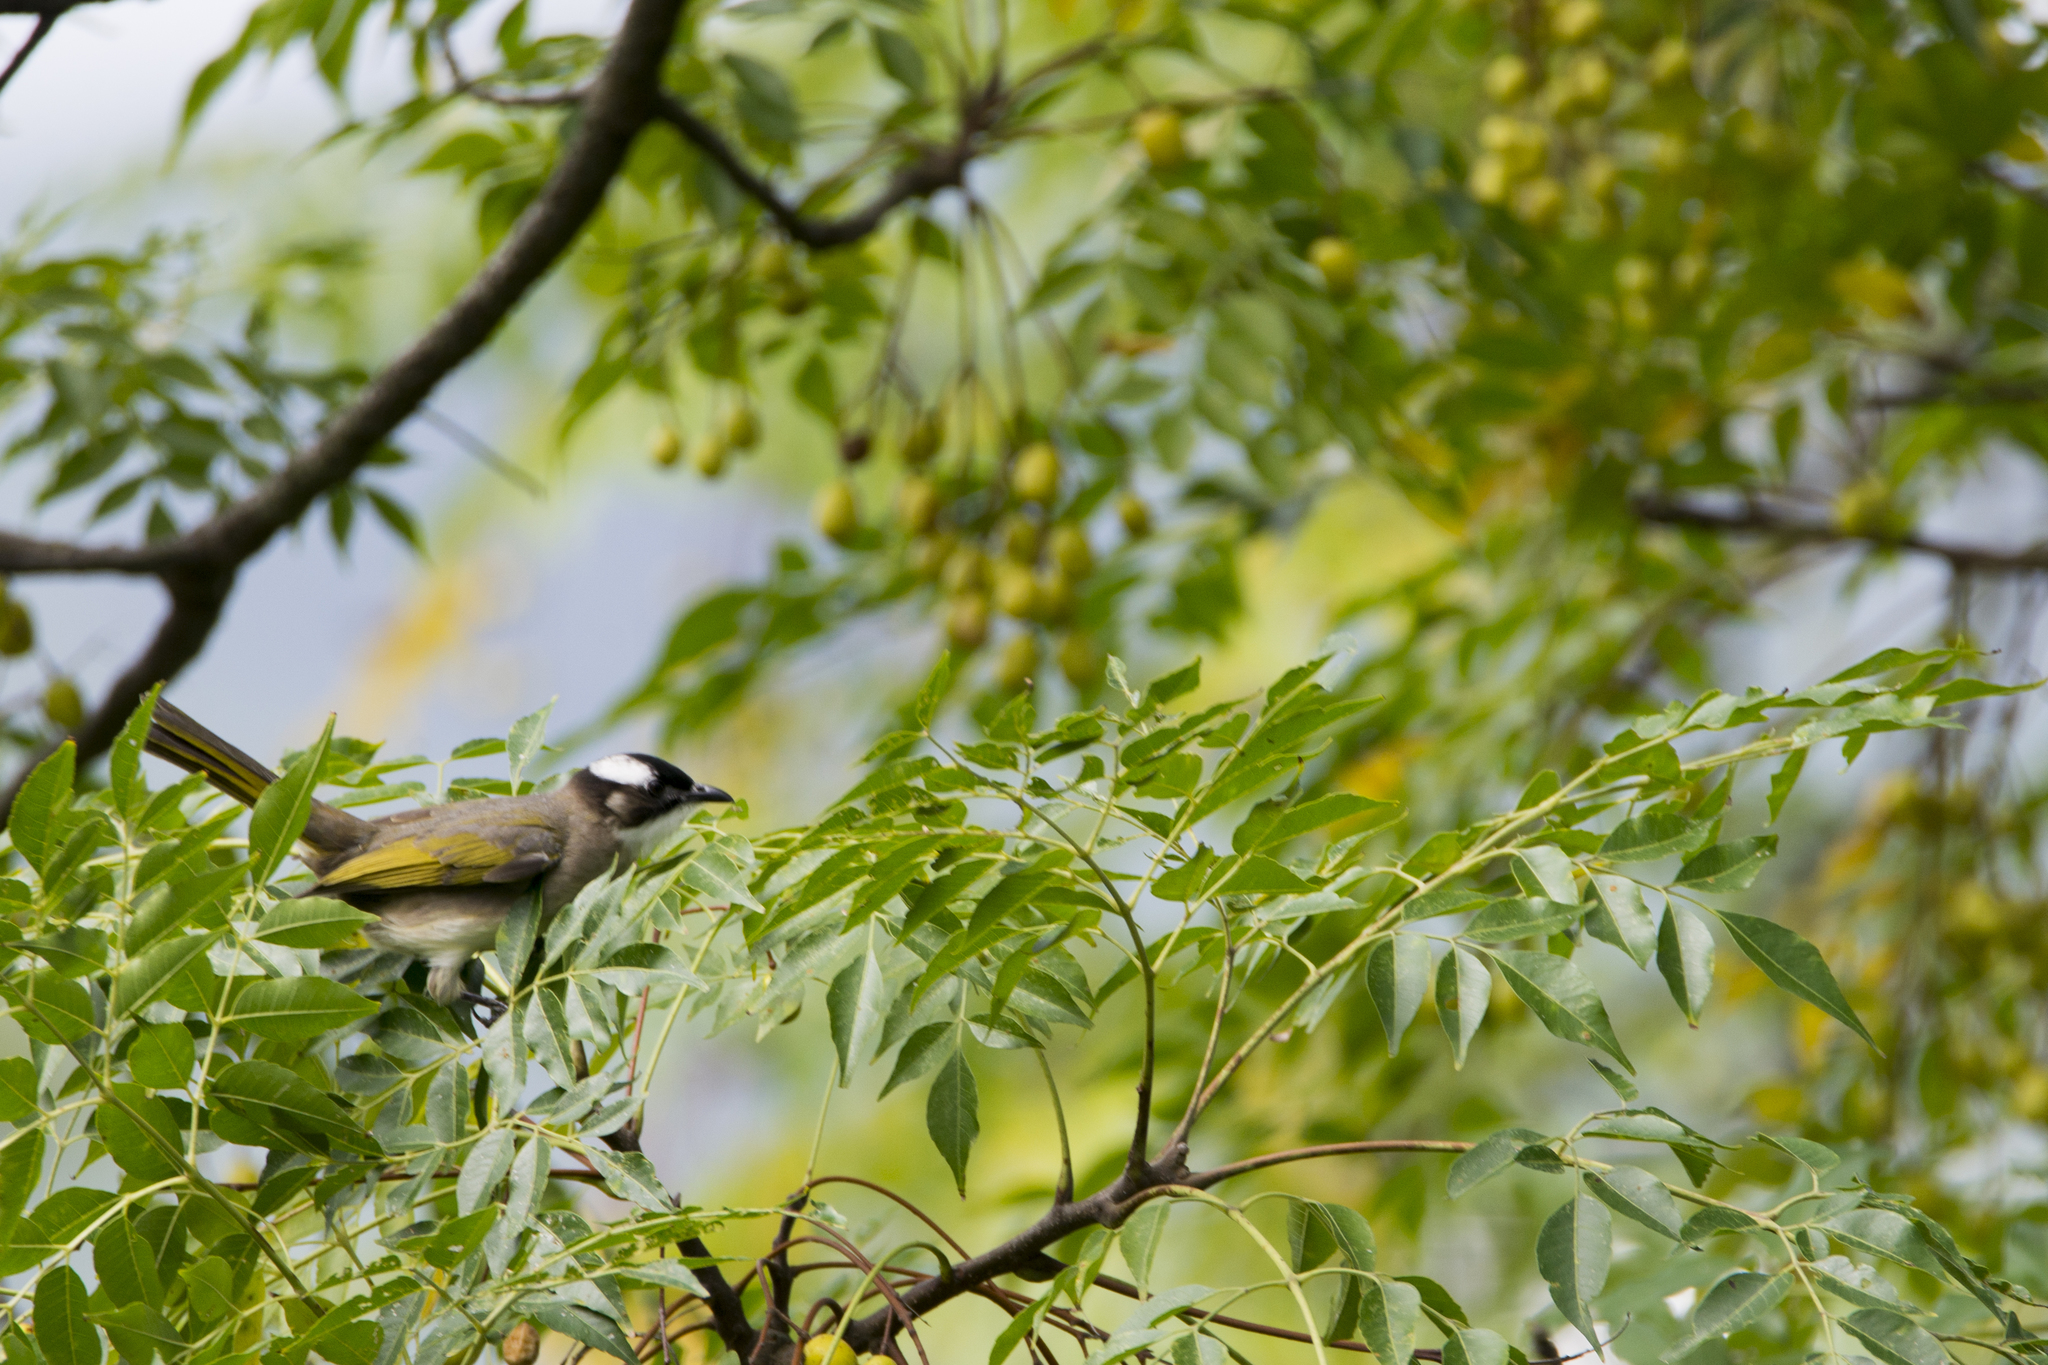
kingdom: Animalia
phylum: Chordata
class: Aves
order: Passeriformes
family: Pycnonotidae
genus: Pycnonotus
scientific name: Pycnonotus sinensis
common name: Light-vented bulbul
